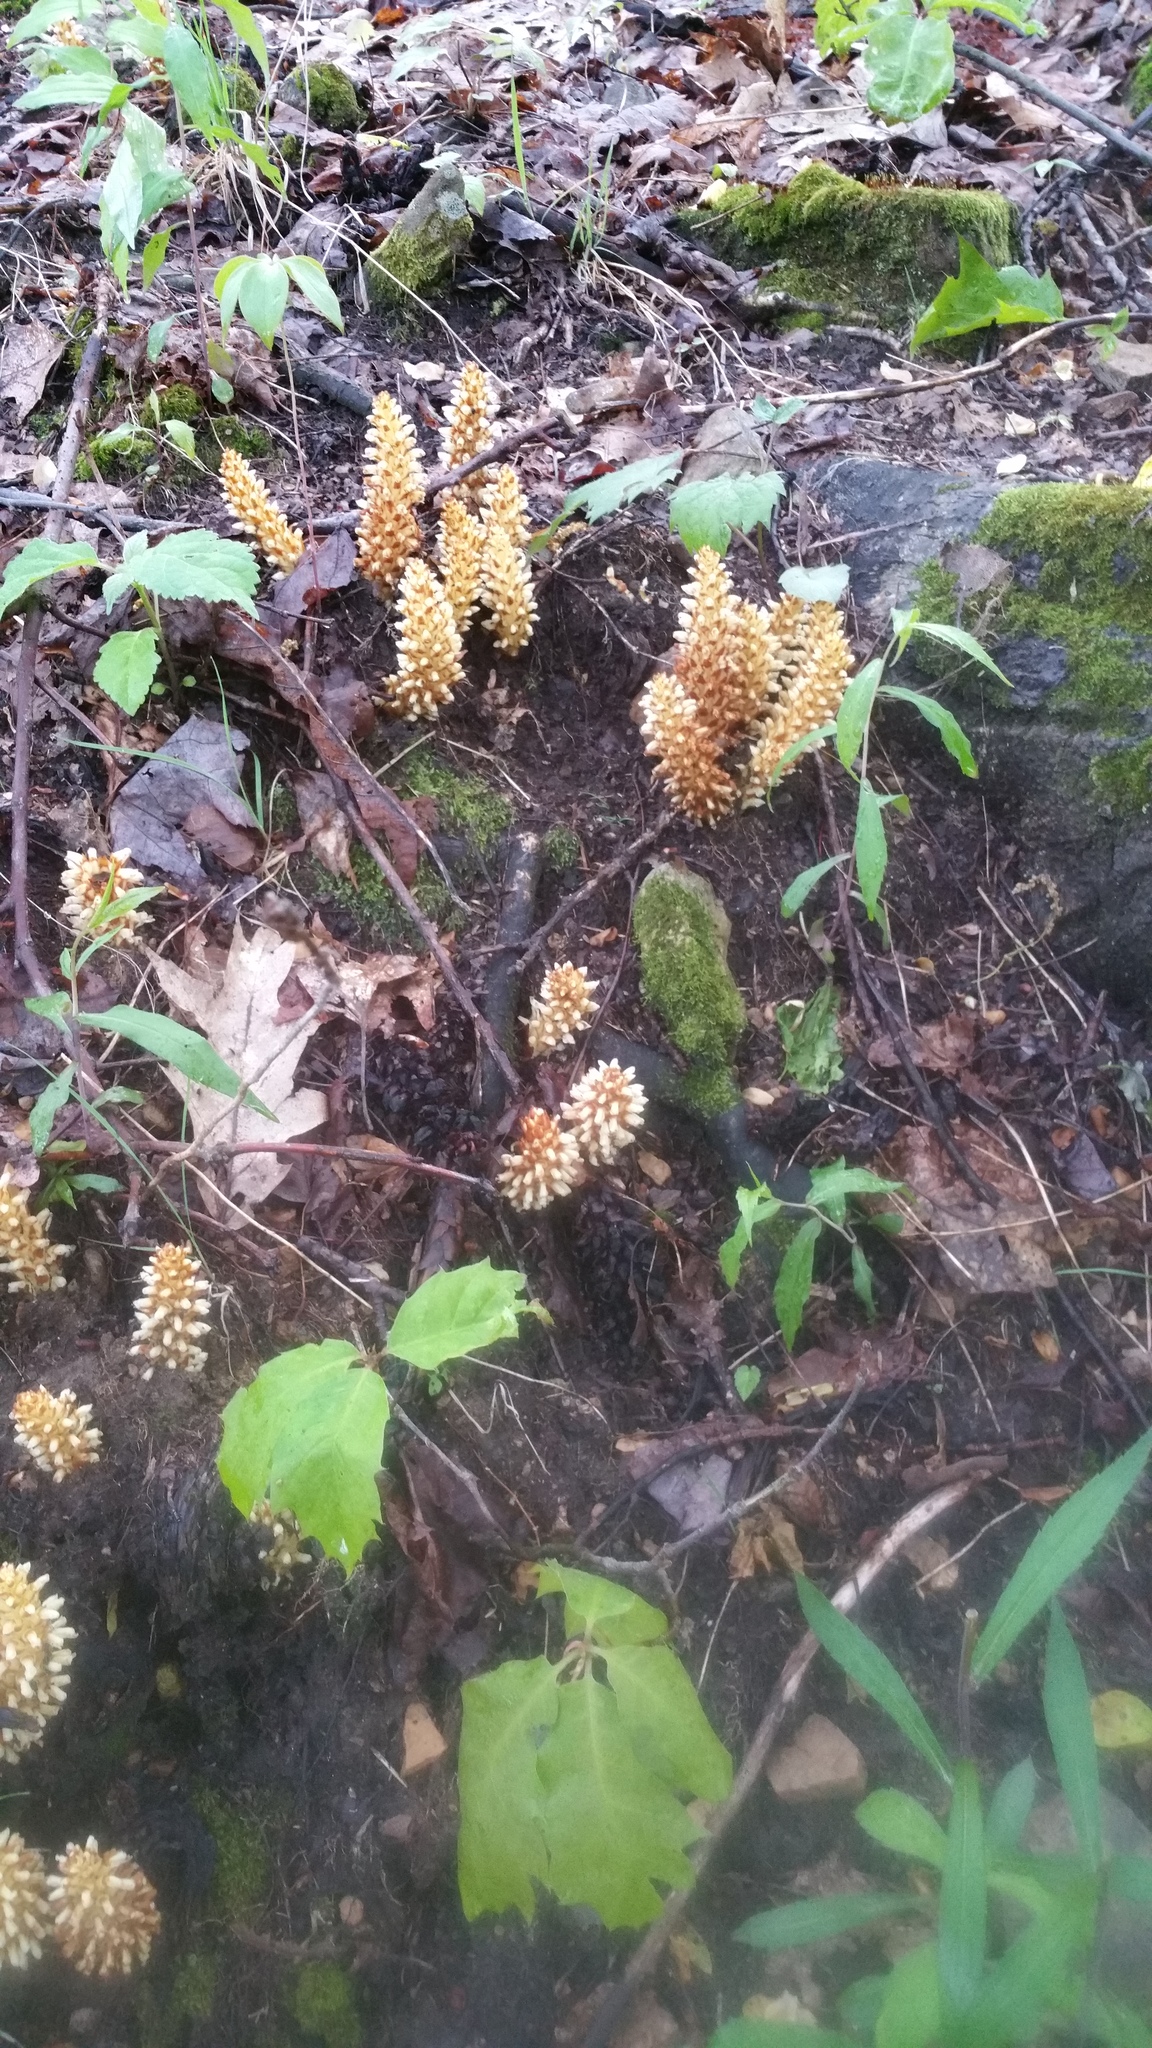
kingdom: Plantae
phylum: Tracheophyta
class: Magnoliopsida
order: Lamiales
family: Orobanchaceae
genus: Conopholis
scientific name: Conopholis americana
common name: American cancer-root
